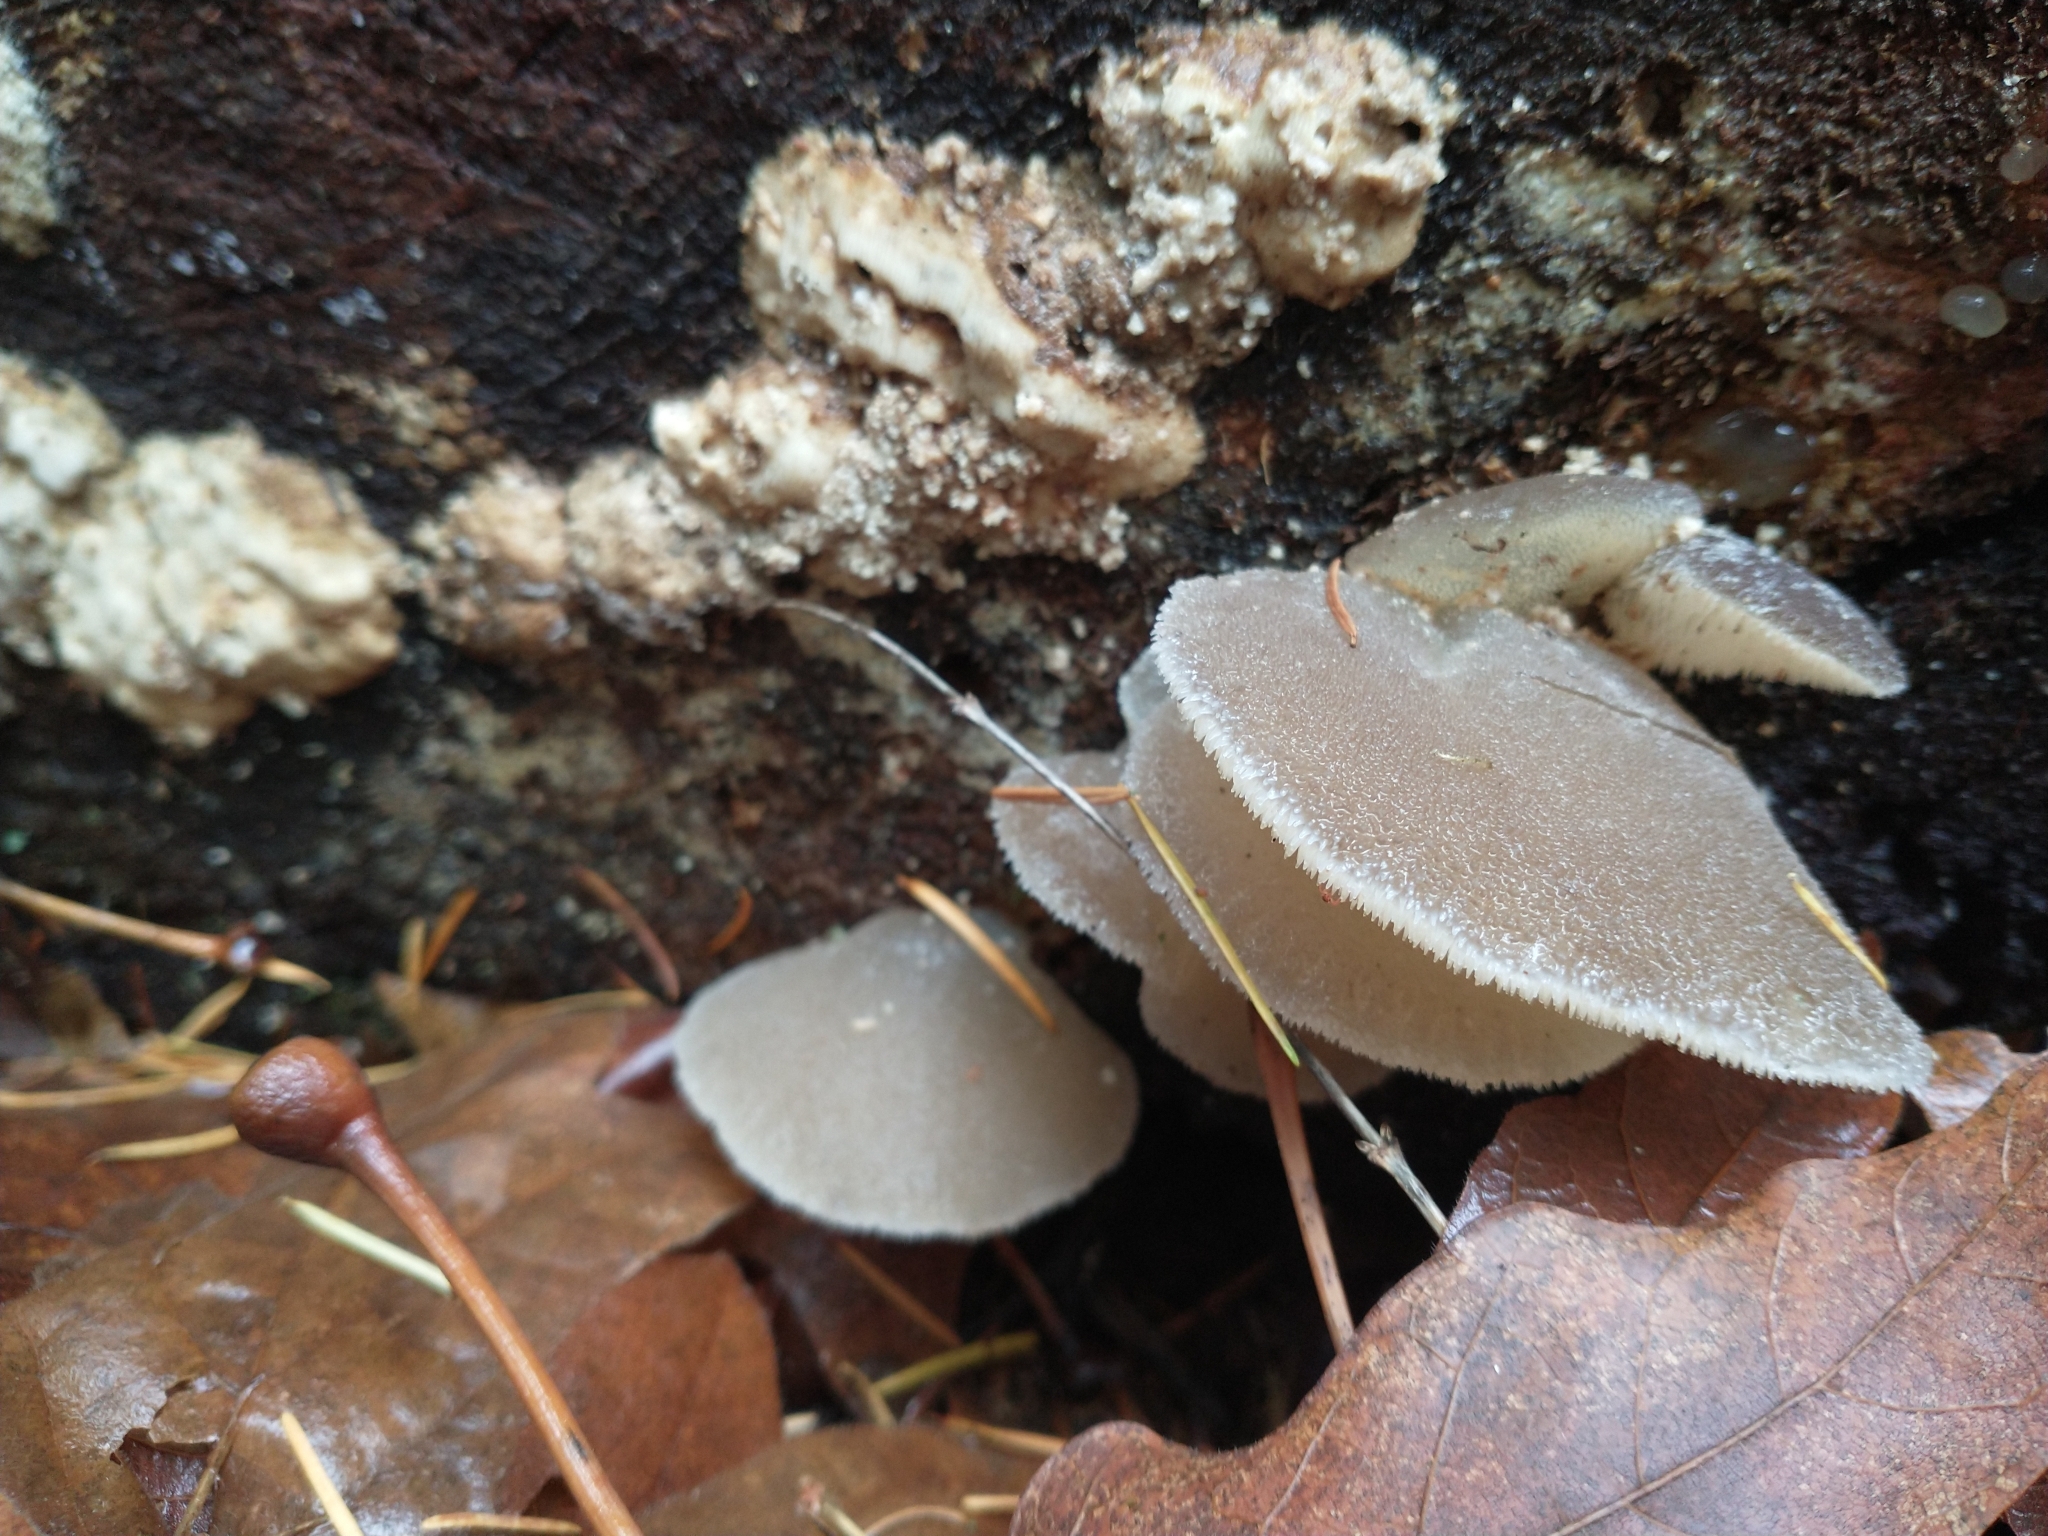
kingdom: Fungi
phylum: Basidiomycota
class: Agaricomycetes
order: Auriculariales
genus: Pseudohydnum
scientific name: Pseudohydnum gelatinosum
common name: Jelly tongue
